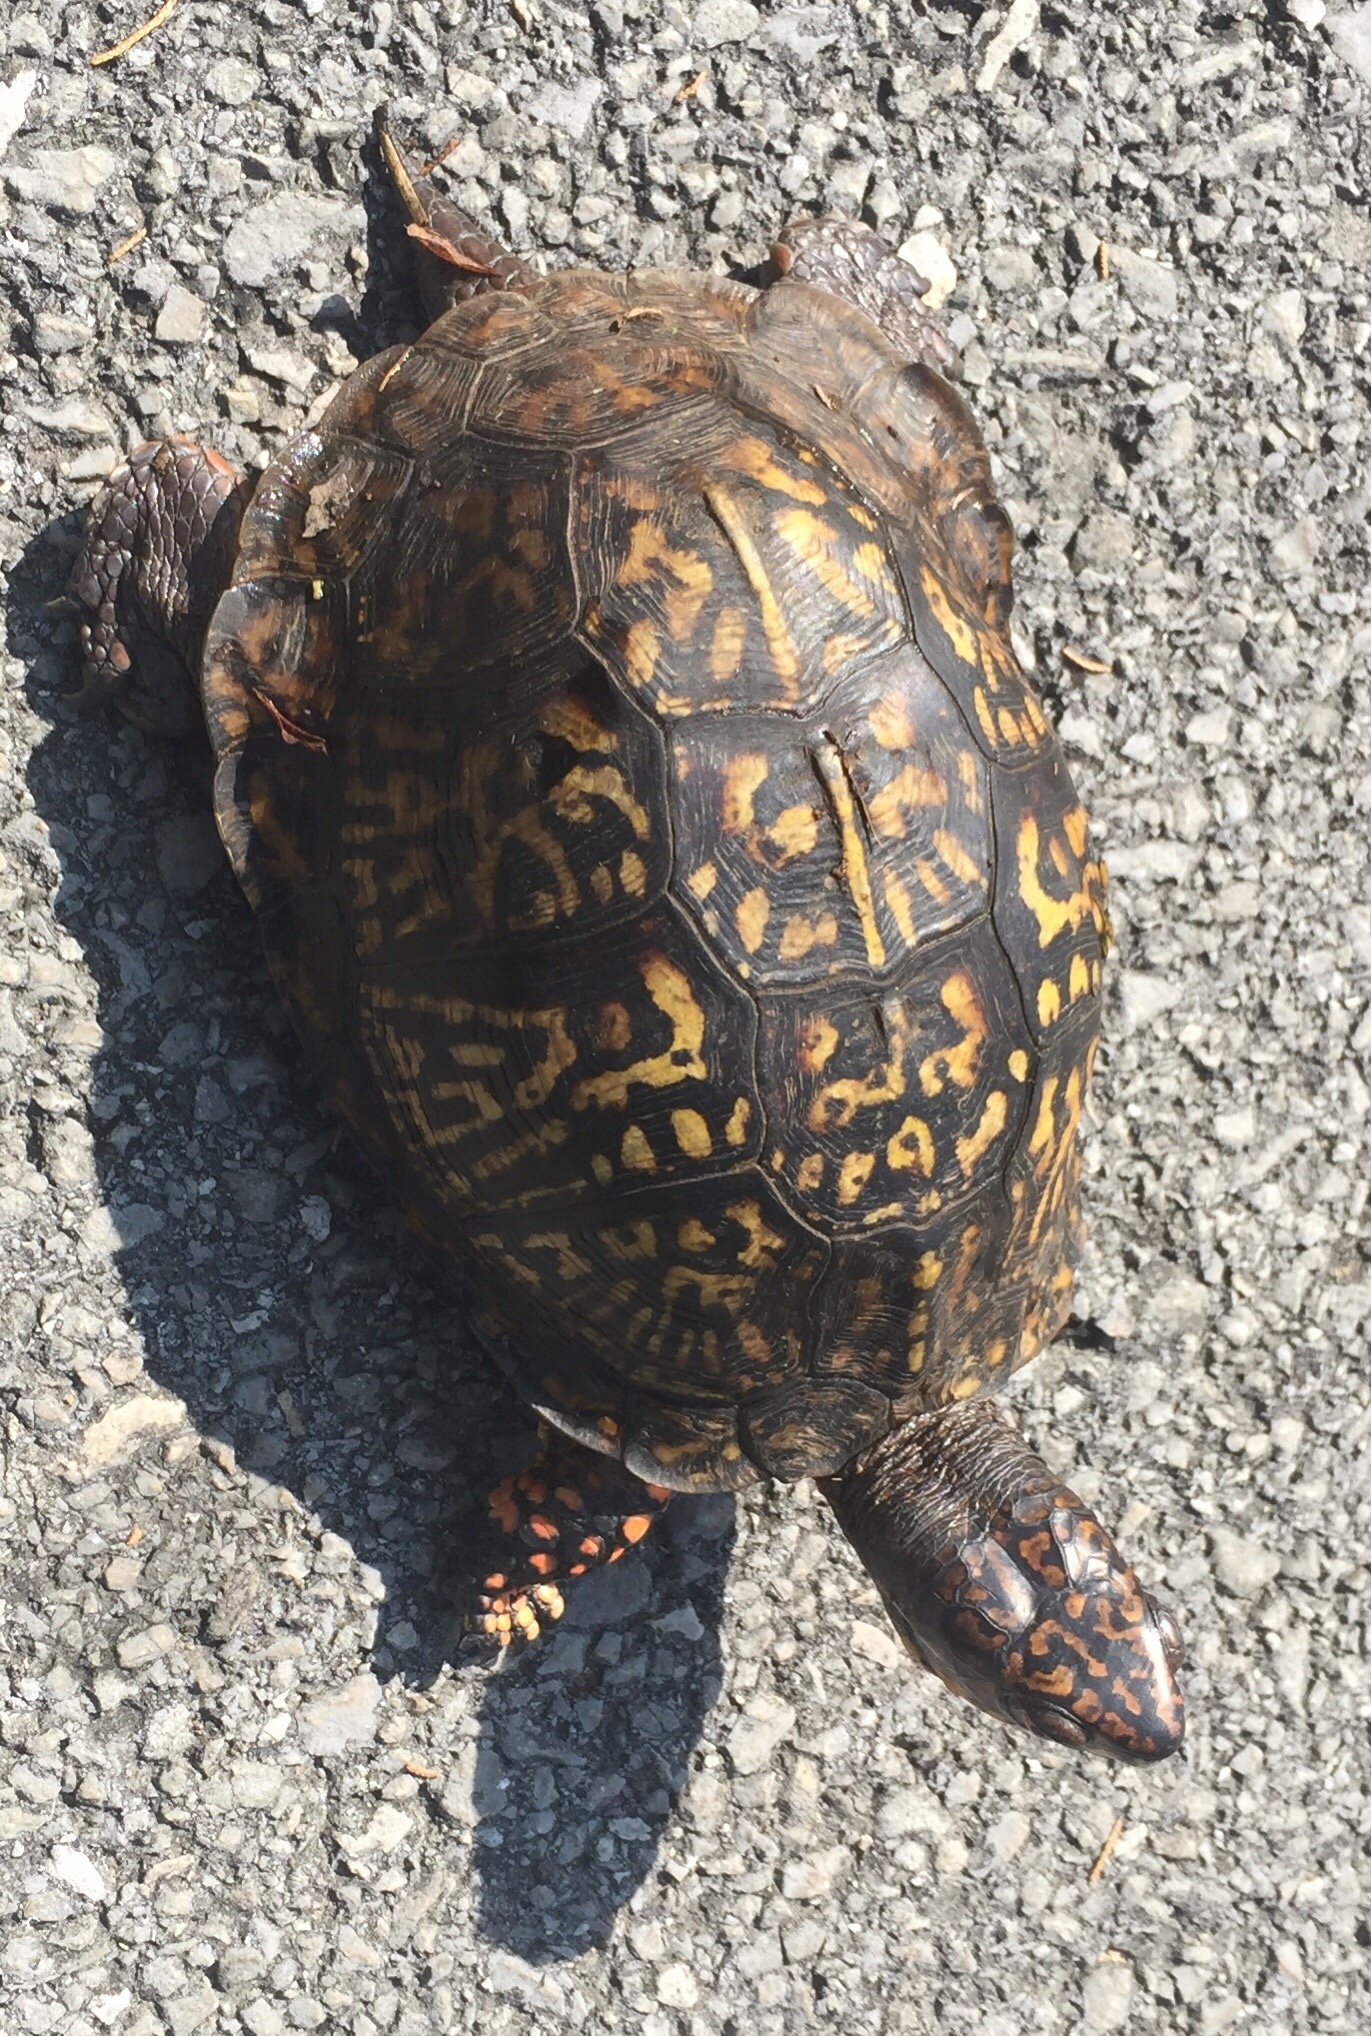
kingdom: Animalia
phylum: Chordata
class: Testudines
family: Emydidae
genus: Terrapene
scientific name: Terrapene carolina
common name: Common box turtle
